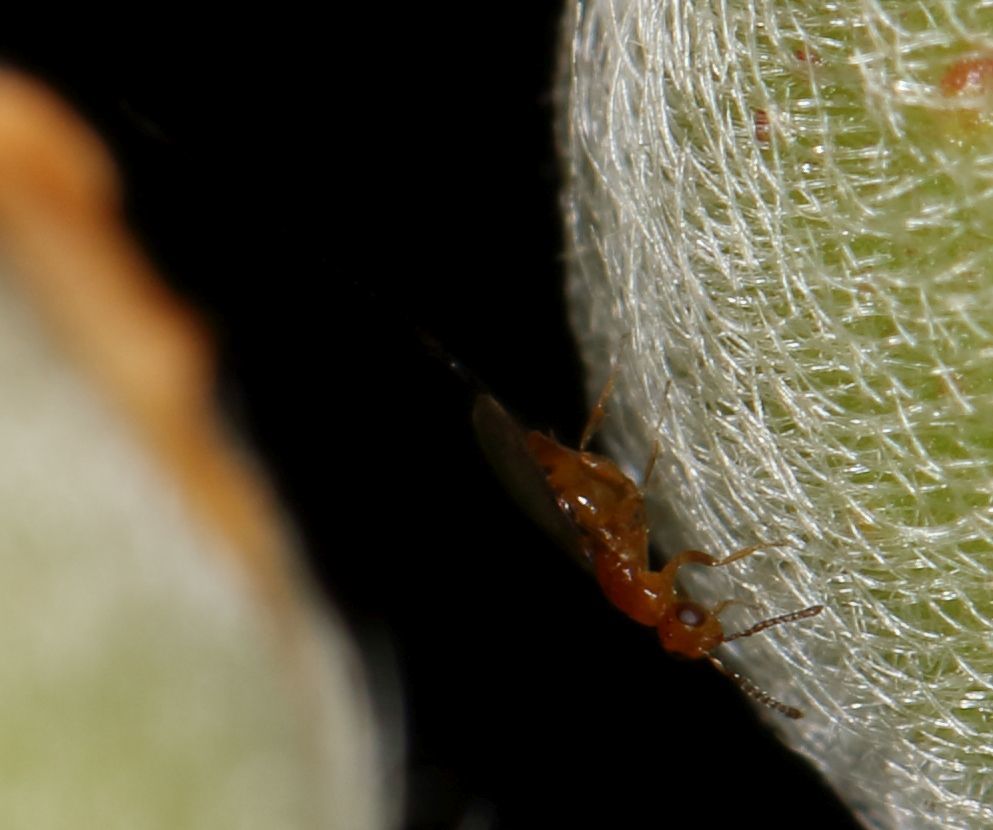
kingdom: Animalia
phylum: Arthropoda
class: Insecta
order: Hymenoptera
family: Agaonidae
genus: Philotrypesis
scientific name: Philotrypesis parca
